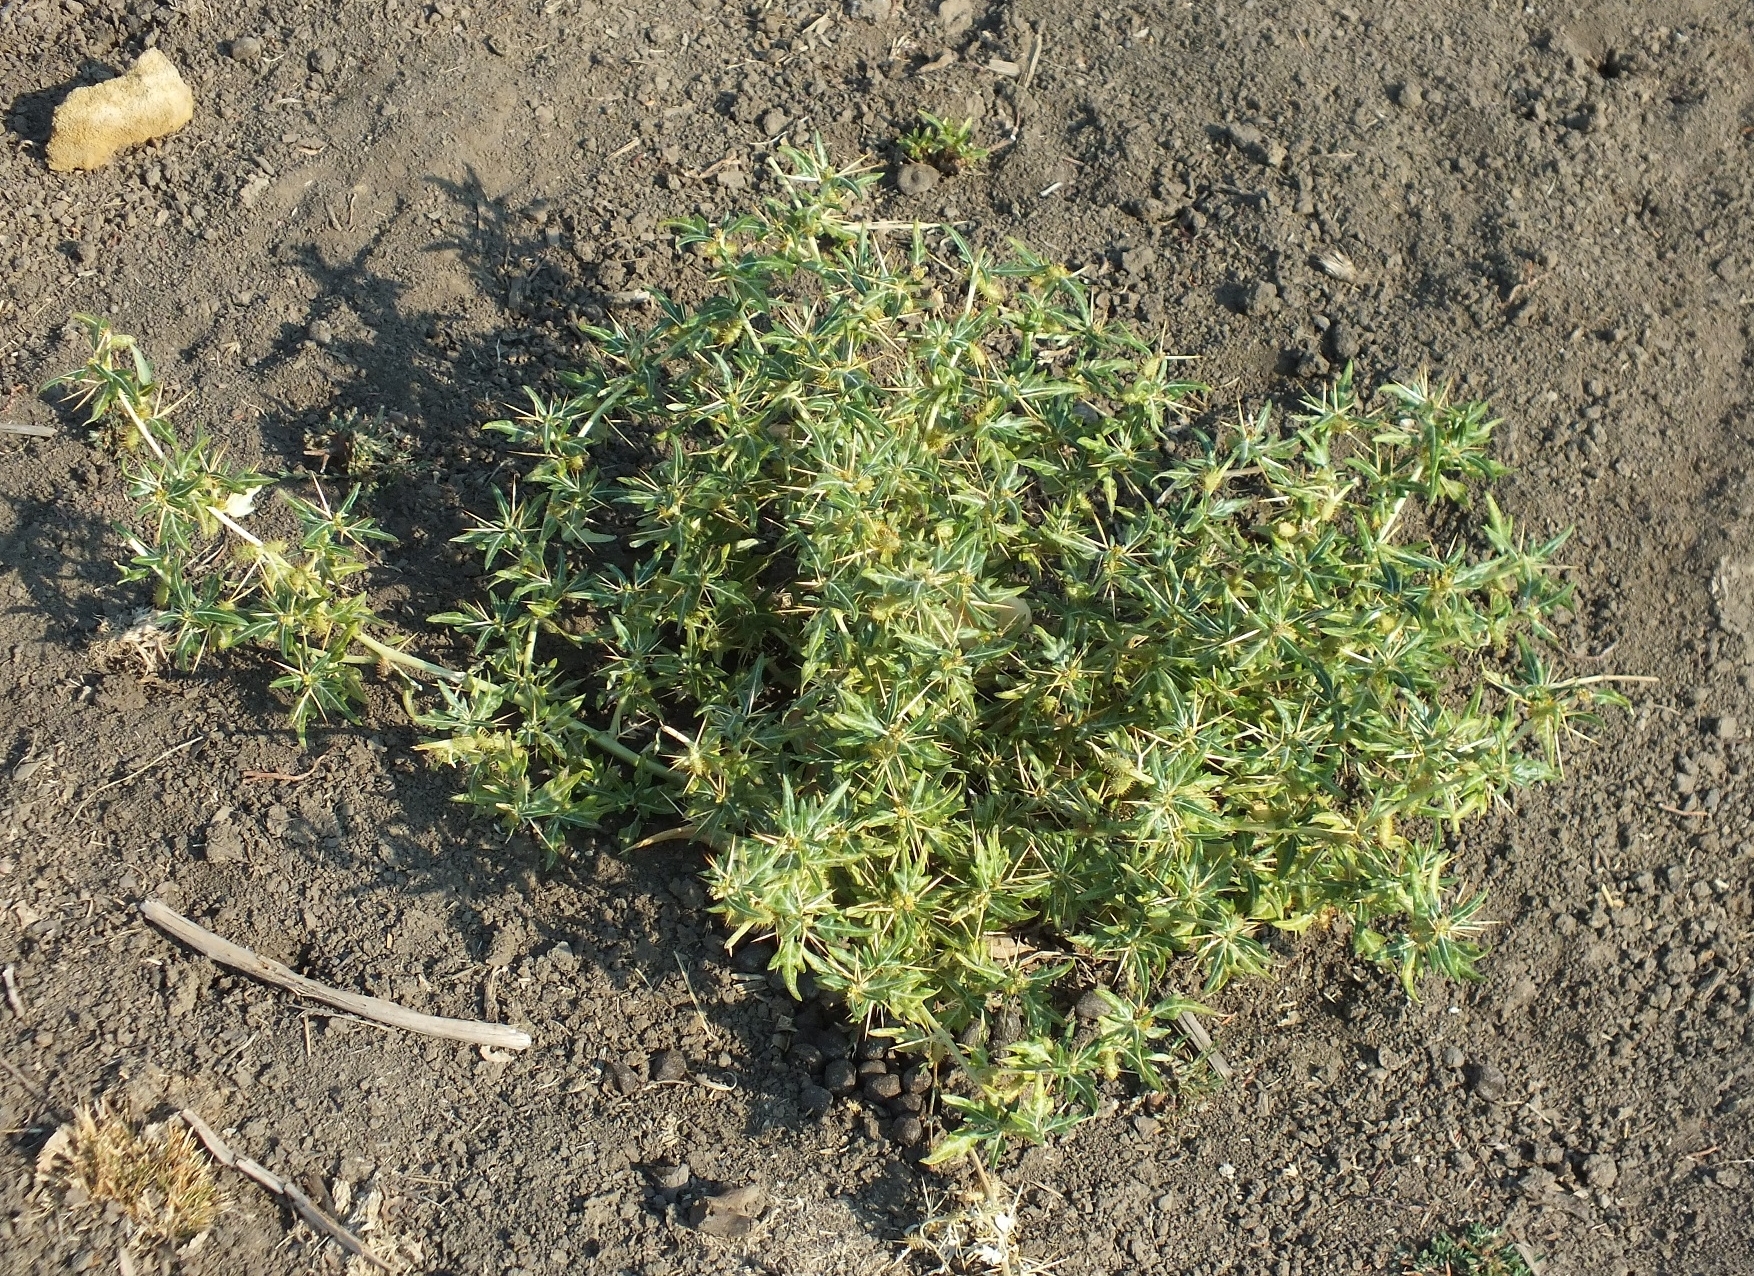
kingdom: Plantae
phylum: Tracheophyta
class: Magnoliopsida
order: Asterales
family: Asteraceae
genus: Xanthium
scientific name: Xanthium spinosum
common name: Spiny cocklebur
